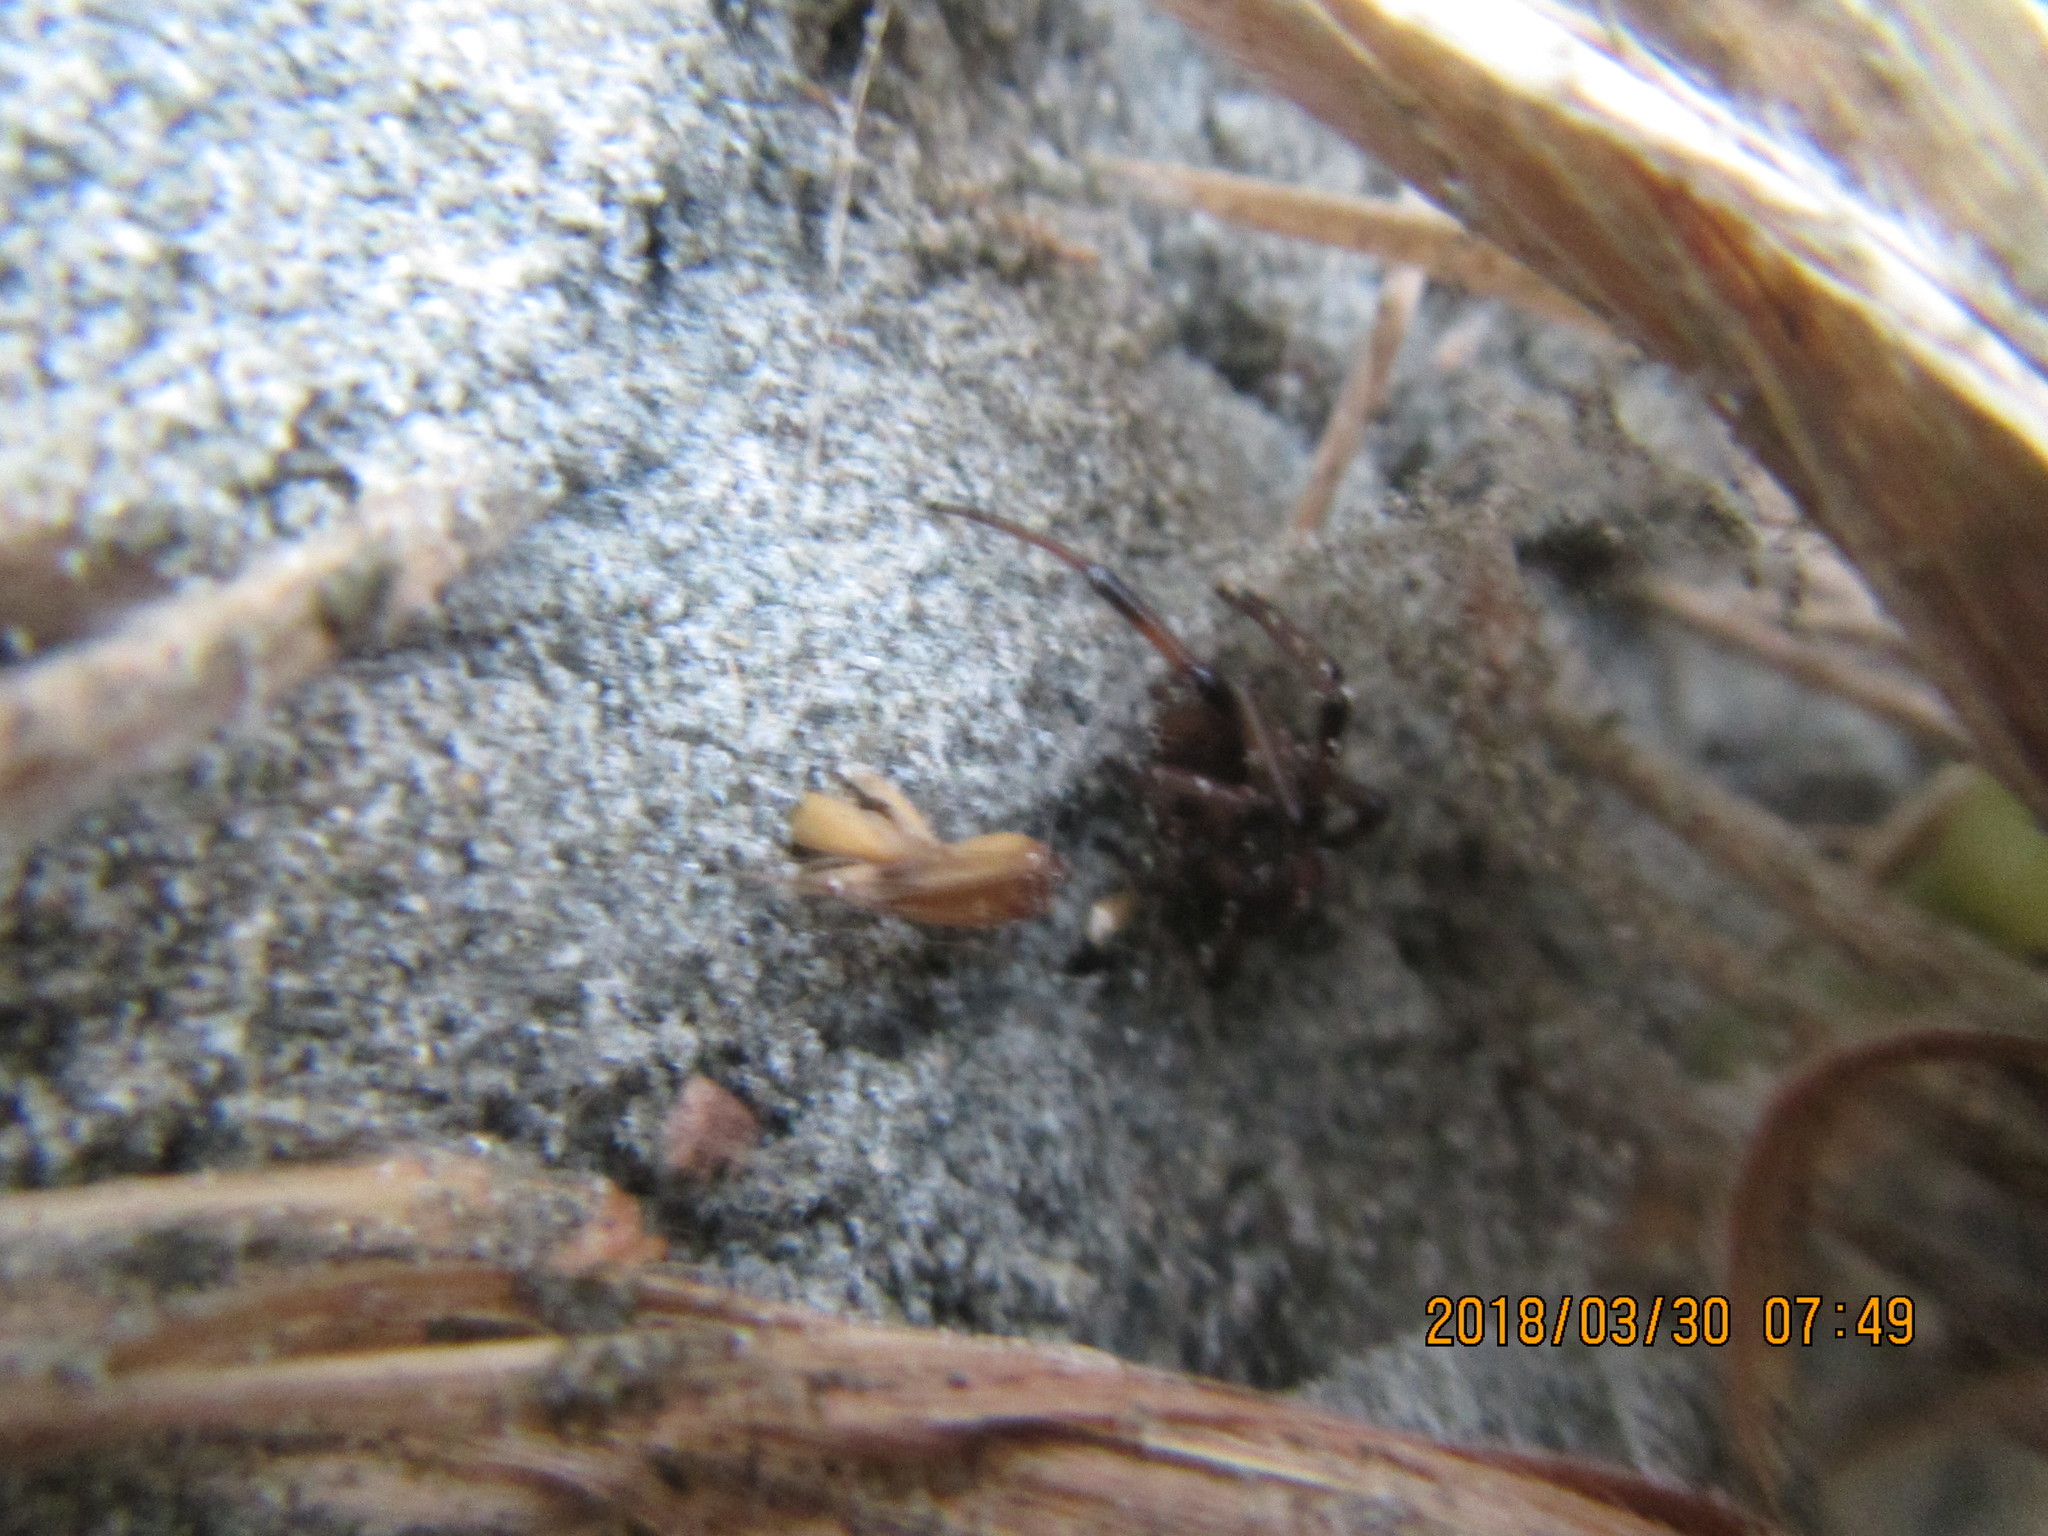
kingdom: Animalia
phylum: Arthropoda
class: Arachnida
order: Araneae
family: Theridiidae
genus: Latrodectus
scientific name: Latrodectus katipo
